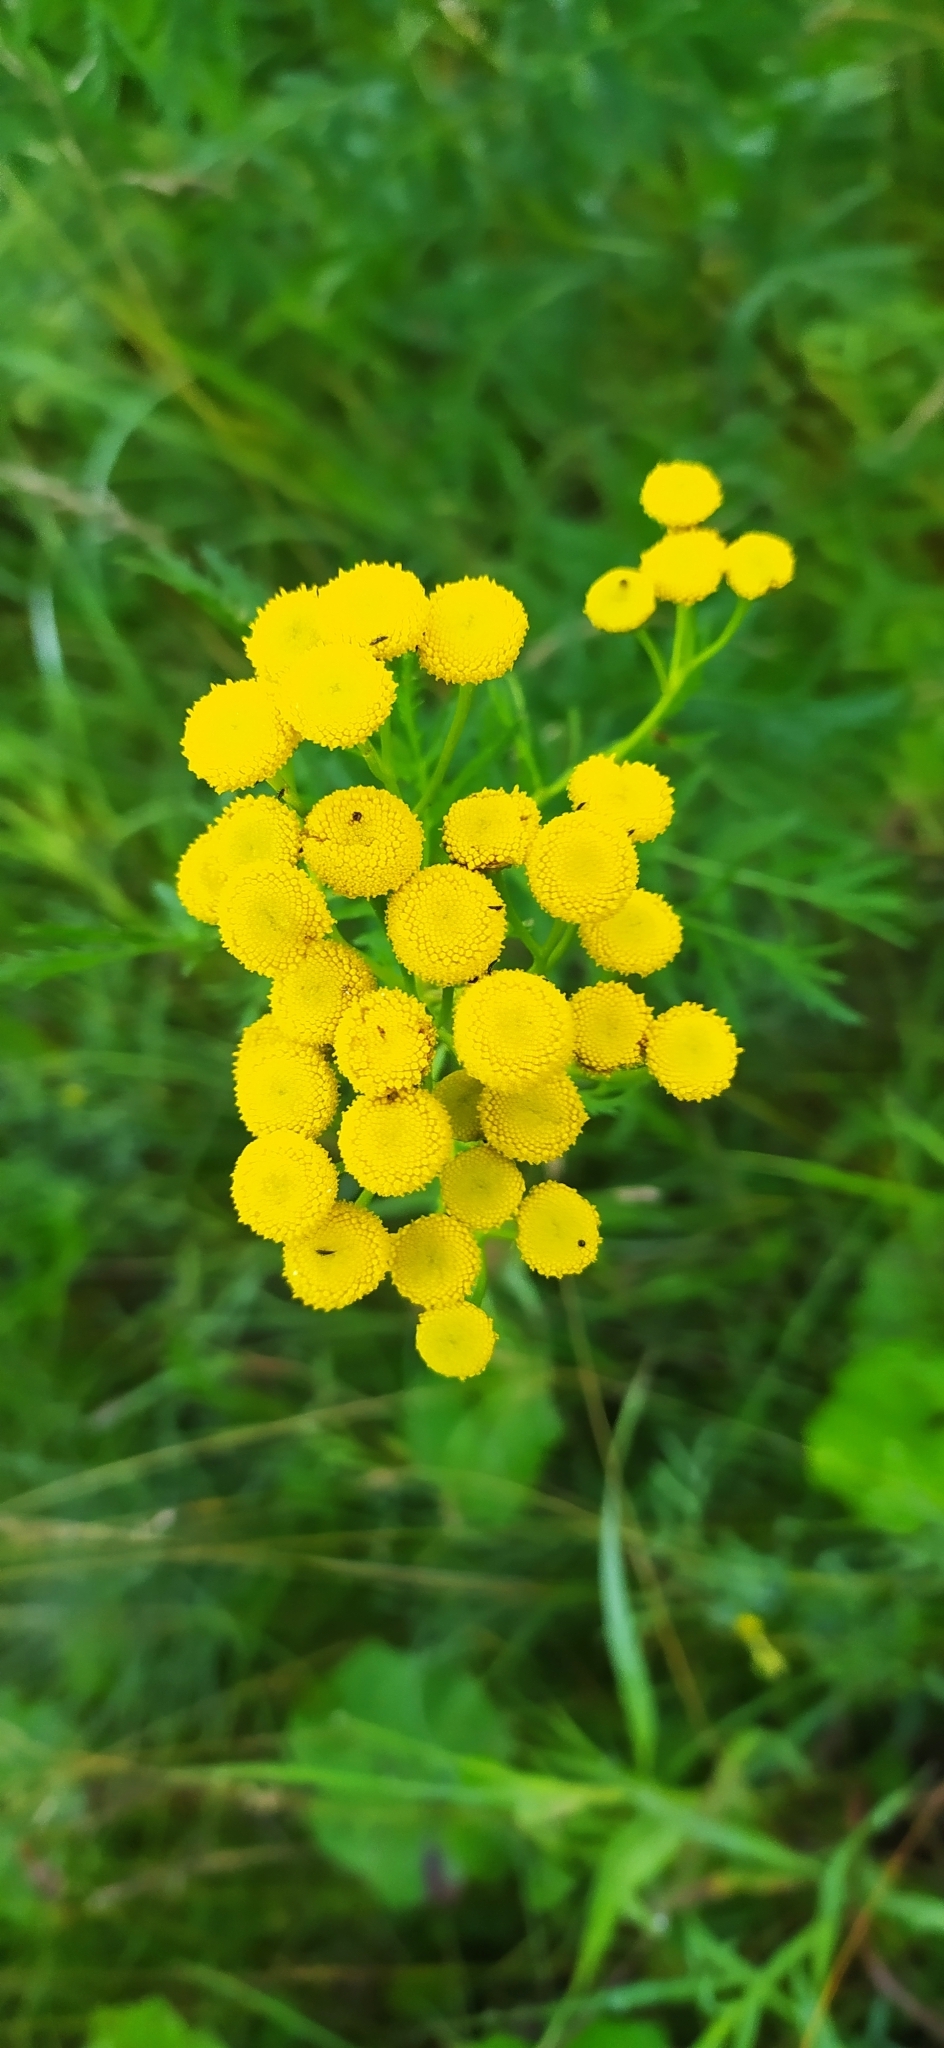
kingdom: Plantae
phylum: Tracheophyta
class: Magnoliopsida
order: Asterales
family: Asteraceae
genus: Tanacetum
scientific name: Tanacetum vulgare
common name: Common tansy
